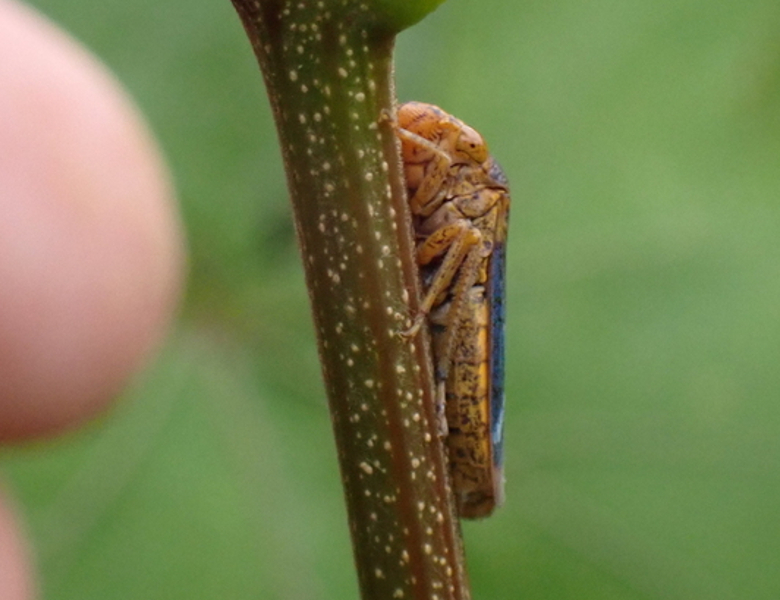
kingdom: Animalia
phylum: Arthropoda
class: Insecta
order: Hemiptera
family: Cicadellidae
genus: Oncometopia
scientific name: Oncometopia orbona
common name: Broad-headed sharpshooter
